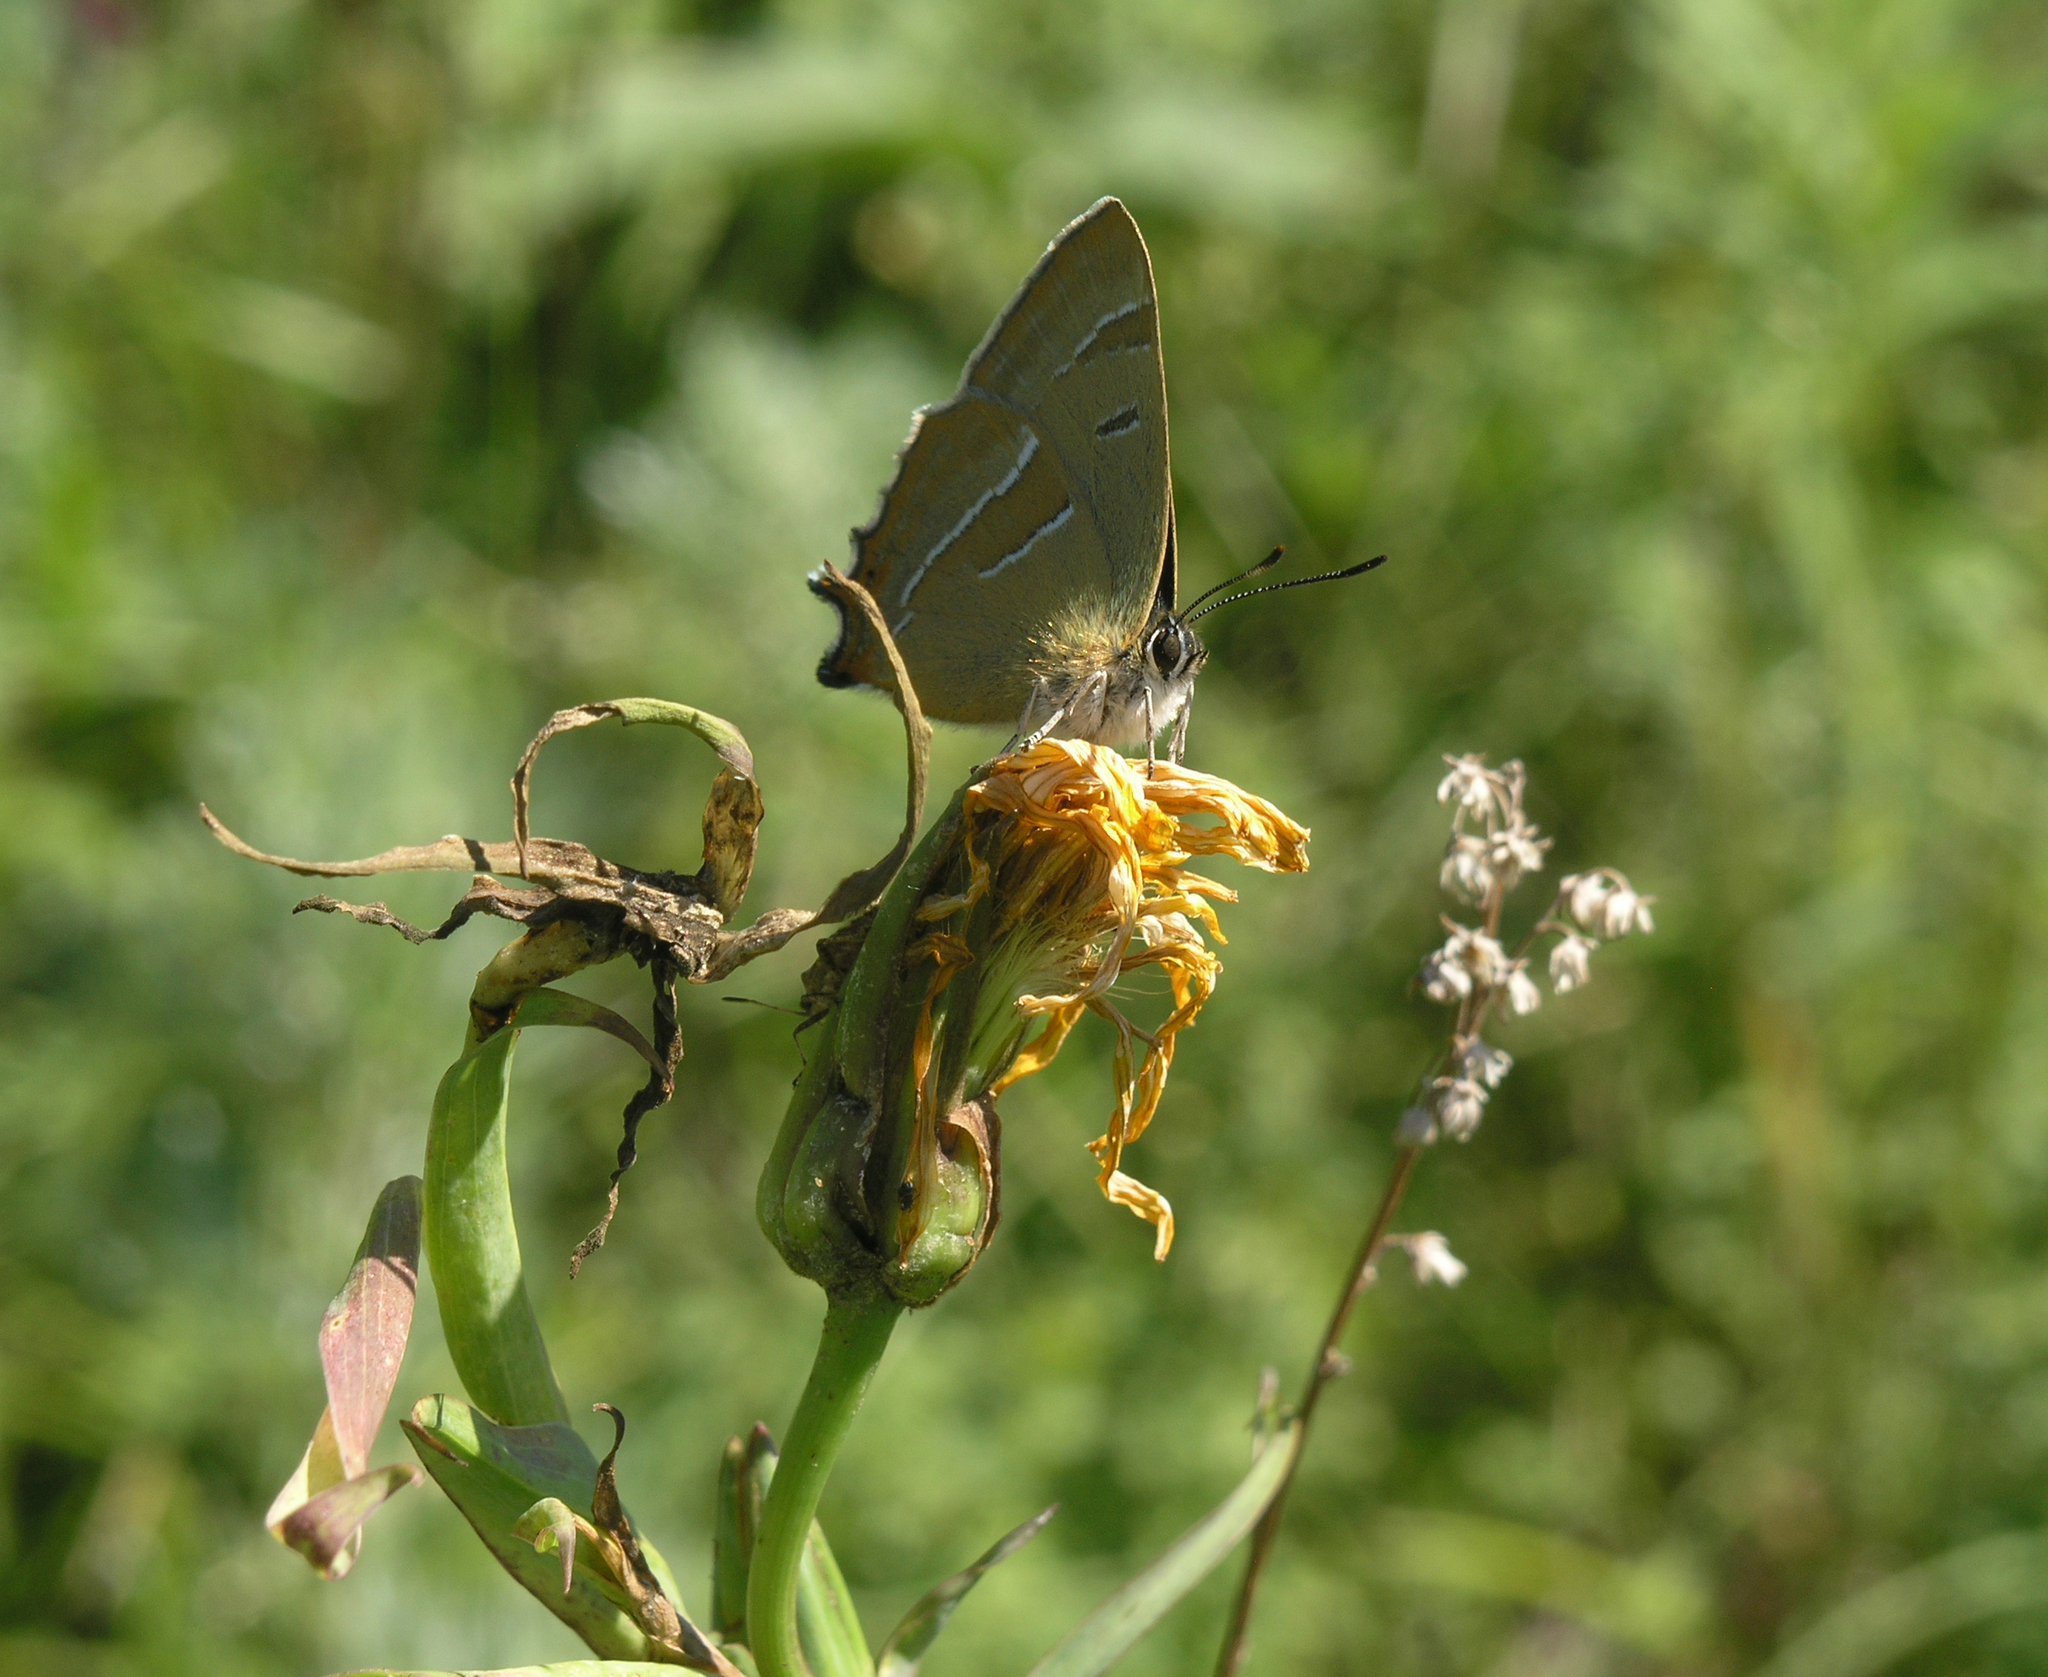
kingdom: Plantae
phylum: Tracheophyta
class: Magnoliopsida
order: Asterales
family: Asteraceae
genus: Crepis
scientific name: Crepis sibirica
